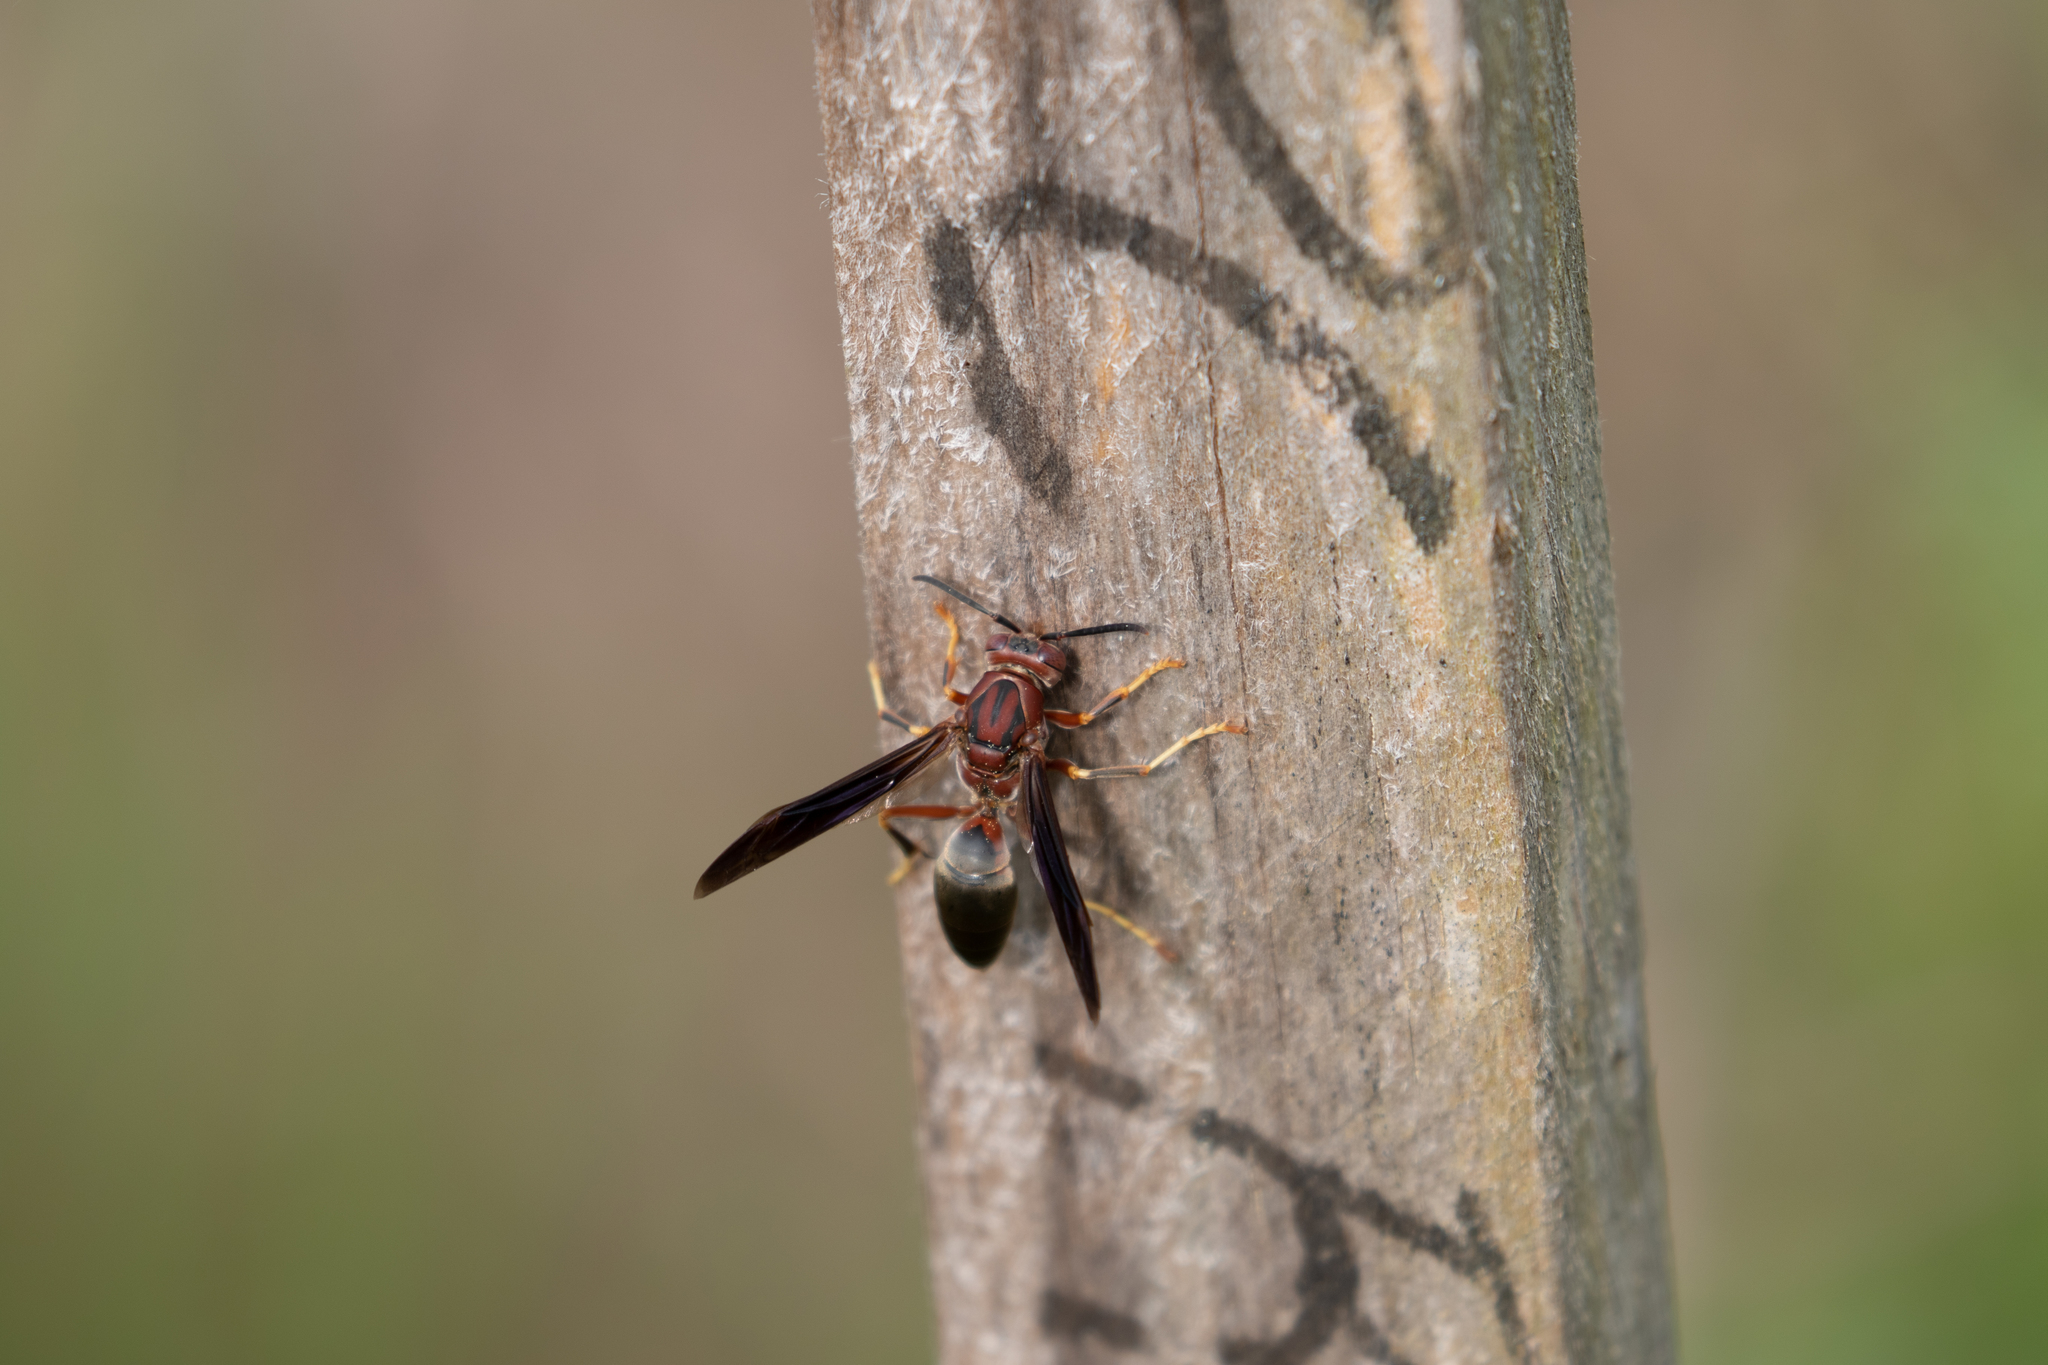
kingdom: Animalia
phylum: Arthropoda
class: Insecta
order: Hymenoptera
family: Eumenidae
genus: Polistes
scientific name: Polistes metricus
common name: Metric paper wasp
